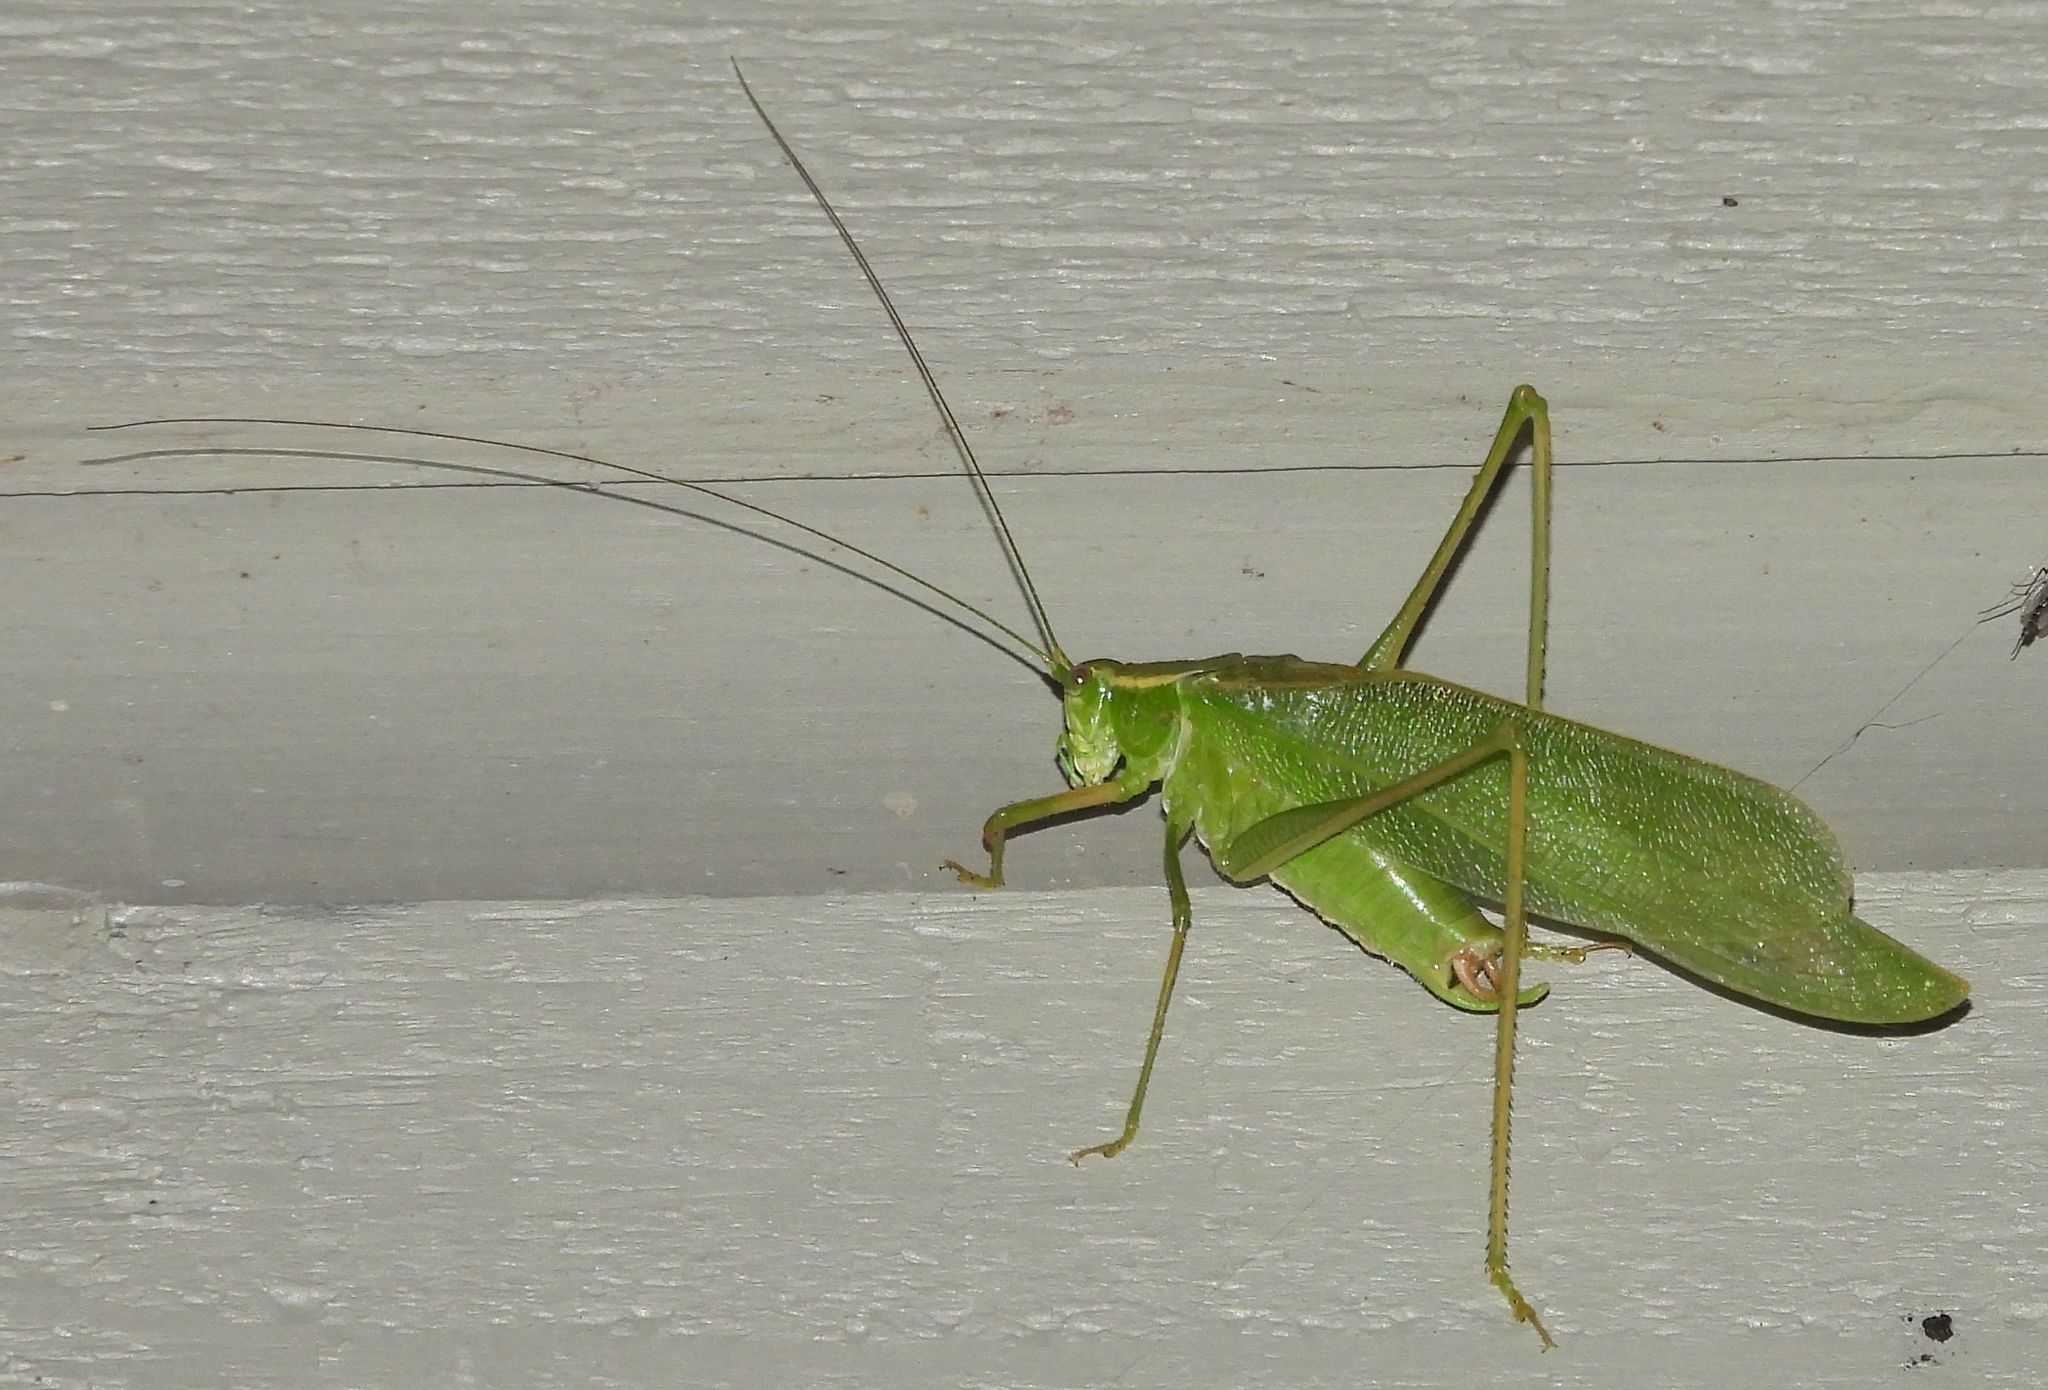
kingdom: Animalia
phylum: Arthropoda
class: Insecta
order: Orthoptera
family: Tettigoniidae
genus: Scudderia
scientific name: Scudderia septentrionalis
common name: Northern bush-katydid
